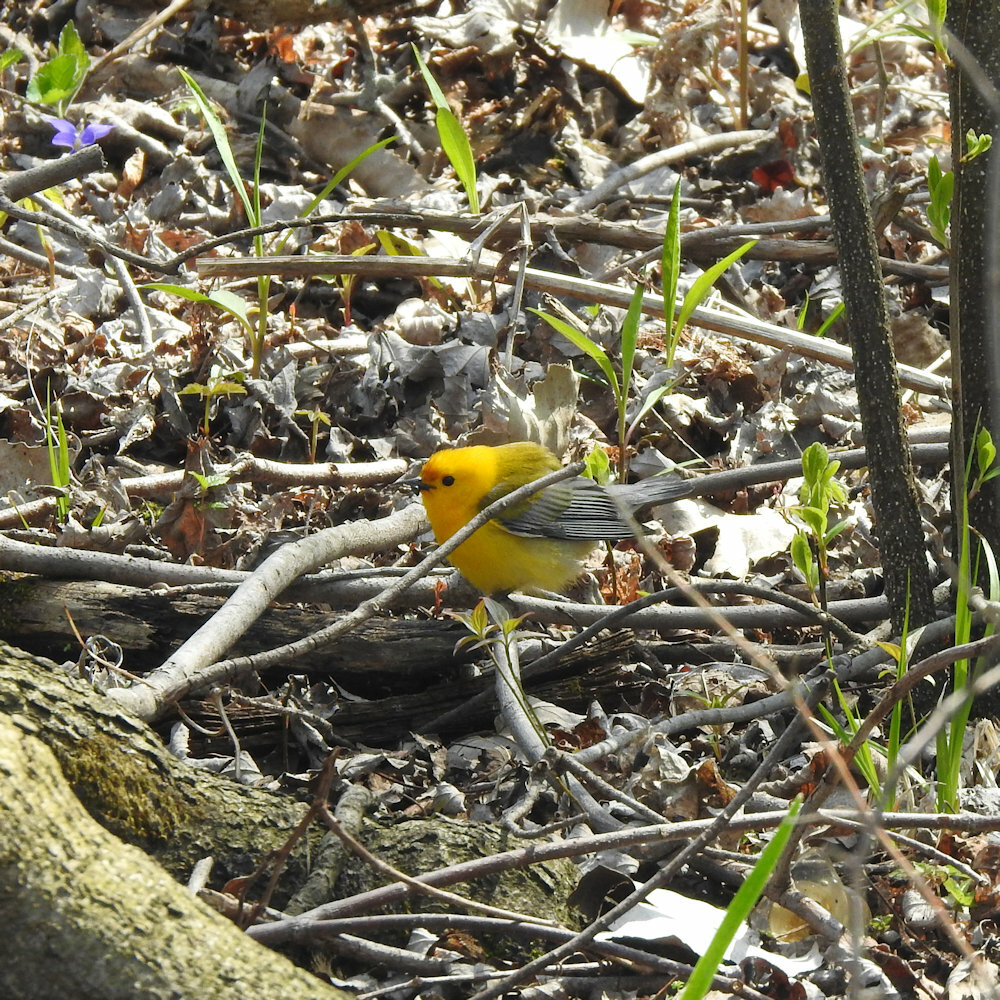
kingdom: Animalia
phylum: Chordata
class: Aves
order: Passeriformes
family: Parulidae
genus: Protonotaria
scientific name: Protonotaria citrea
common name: Prothonotary warbler
